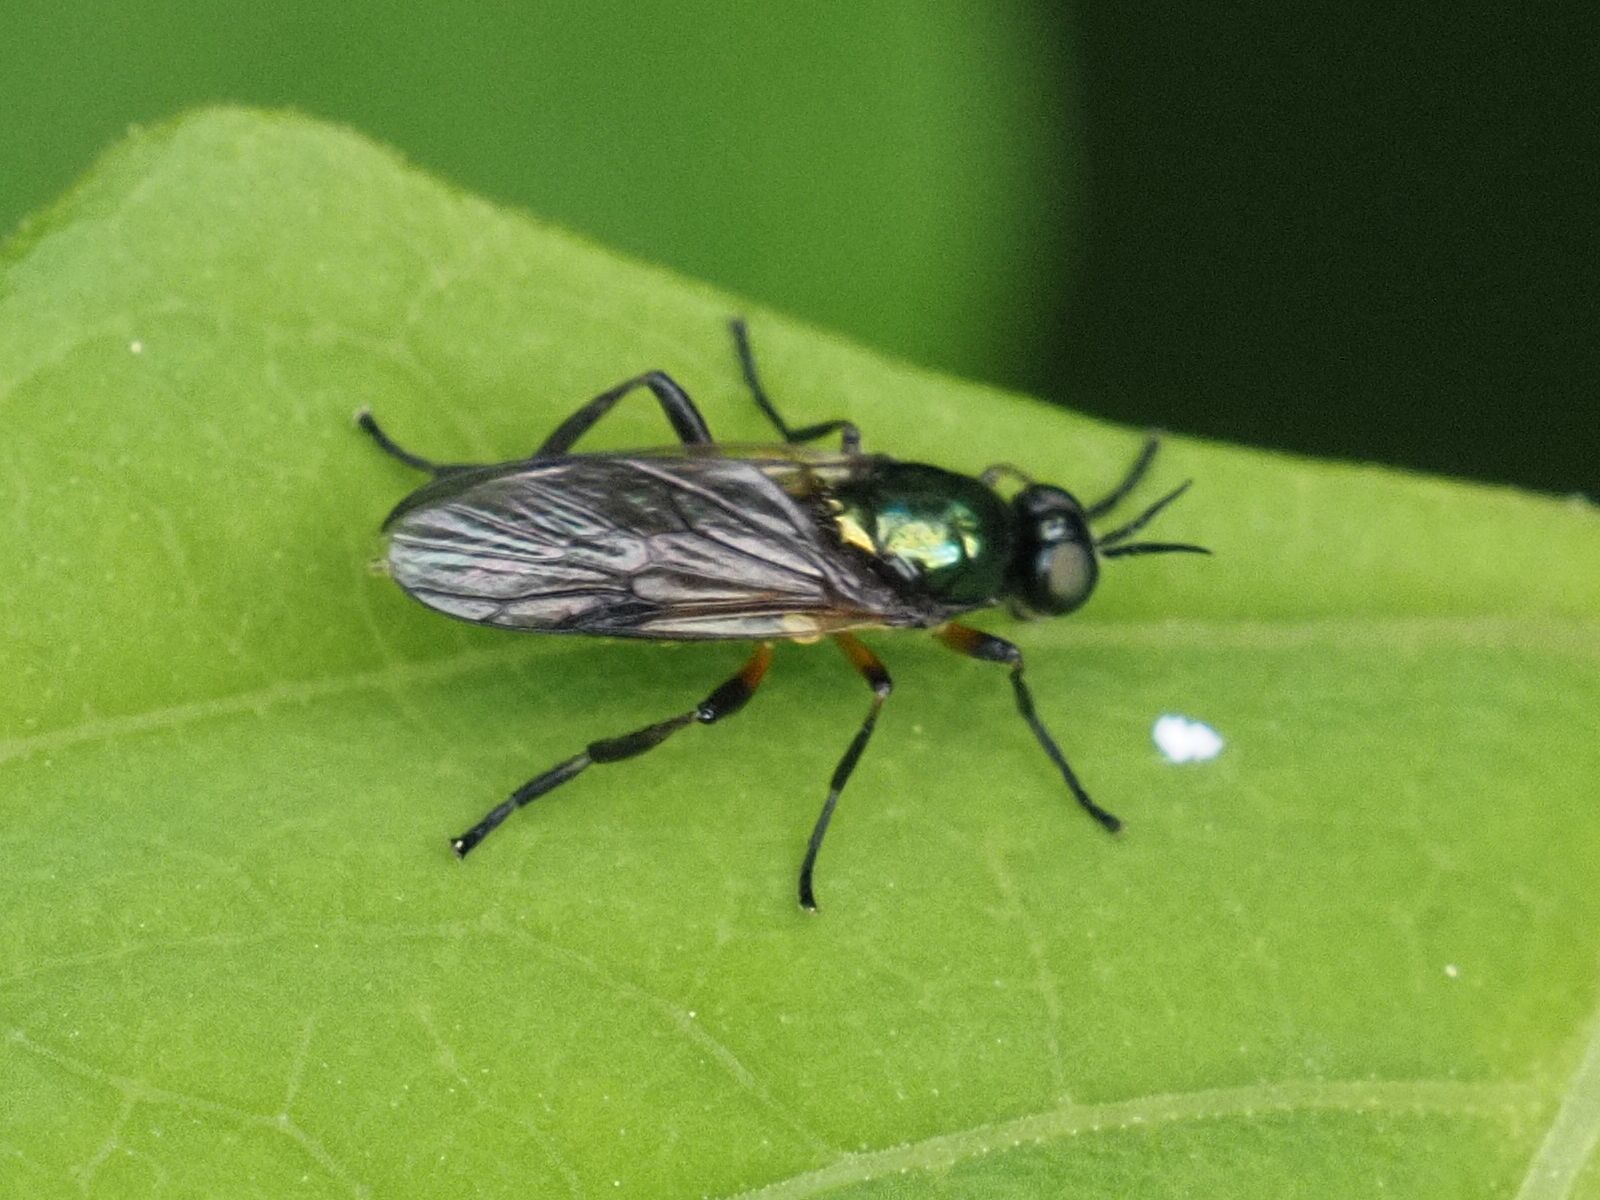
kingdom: Animalia
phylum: Arthropoda
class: Insecta
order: Diptera
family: Stratiomyidae
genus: Actina
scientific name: Actina chalybea
